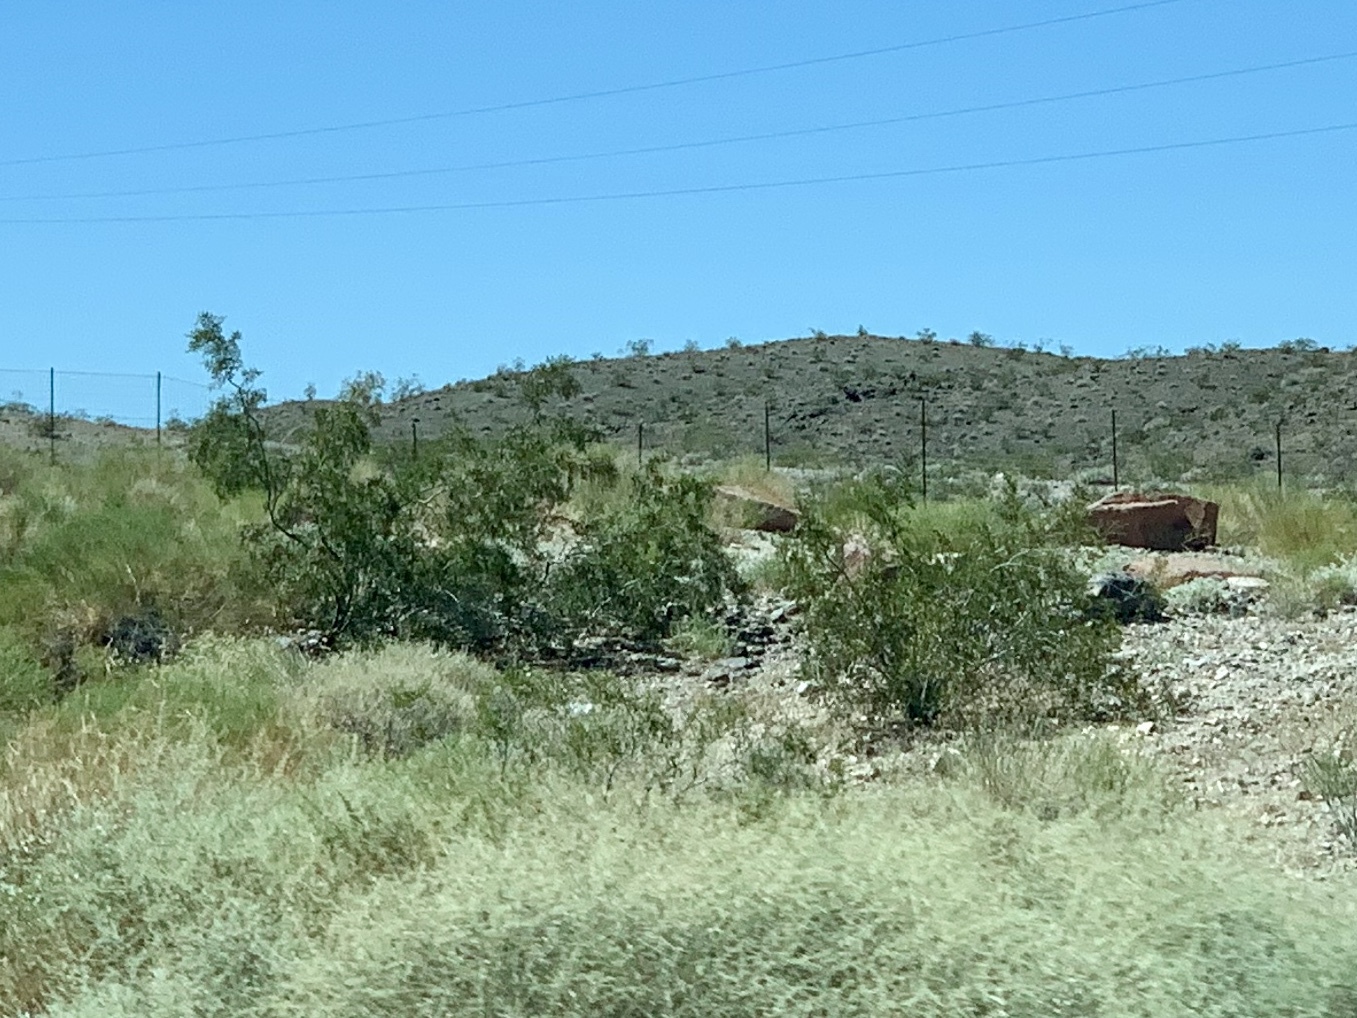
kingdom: Plantae
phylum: Tracheophyta
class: Magnoliopsida
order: Zygophyllales
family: Zygophyllaceae
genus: Larrea
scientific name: Larrea tridentata
